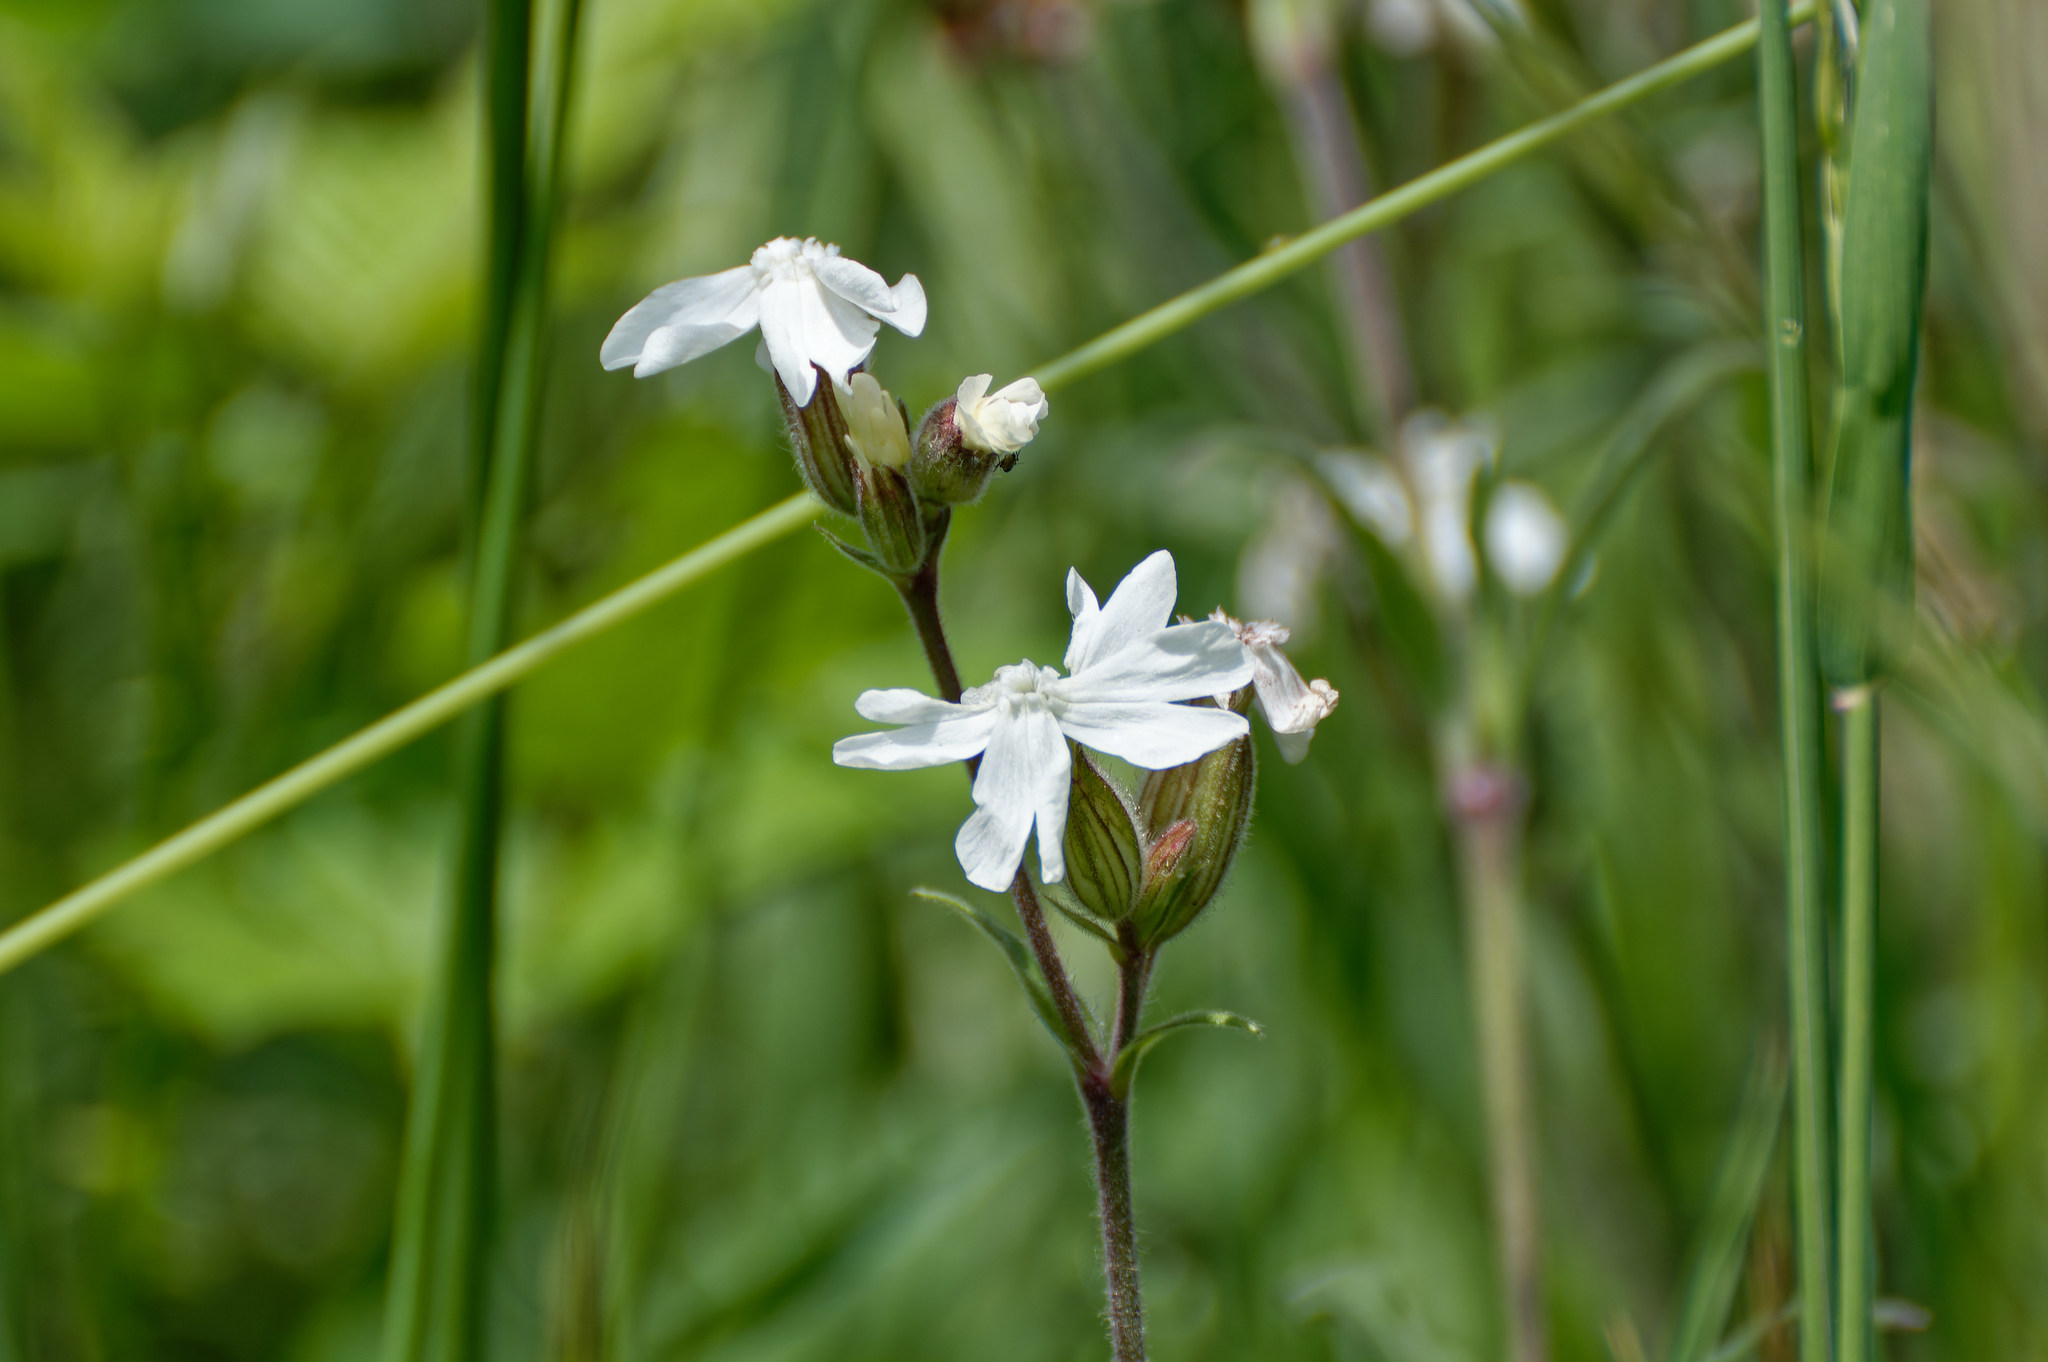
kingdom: Plantae
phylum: Tracheophyta
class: Magnoliopsida
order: Caryophyllales
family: Caryophyllaceae
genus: Silene
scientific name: Silene latifolia
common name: White campion
